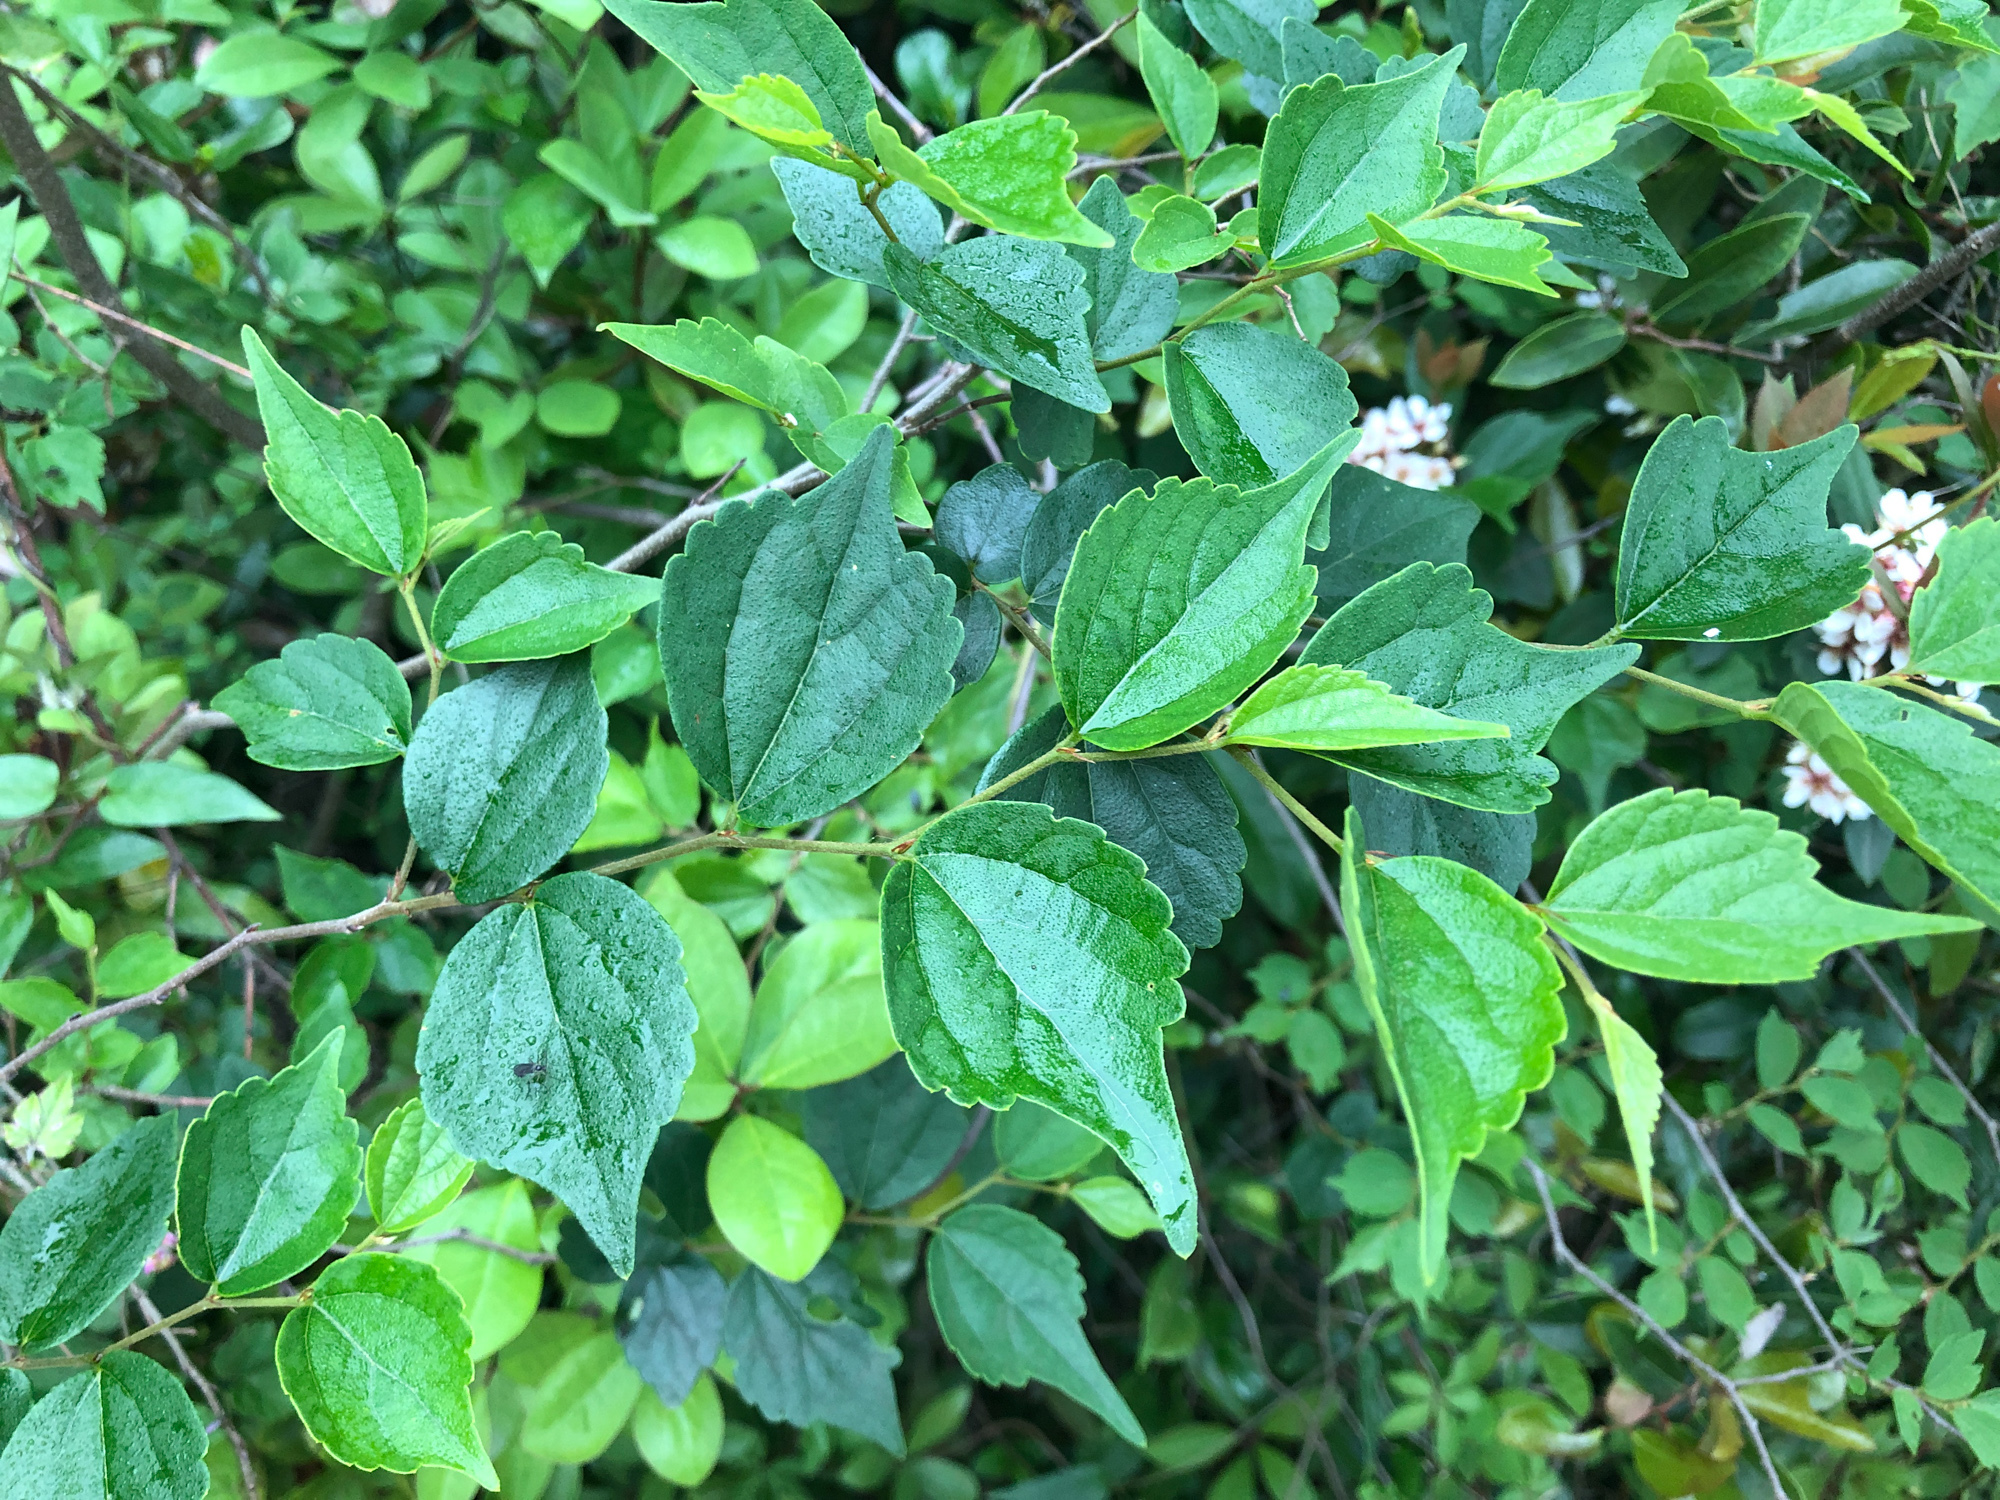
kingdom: Plantae
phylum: Tracheophyta
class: Magnoliopsida
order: Rosales
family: Cannabaceae
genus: Celtis
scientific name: Celtis biondii
